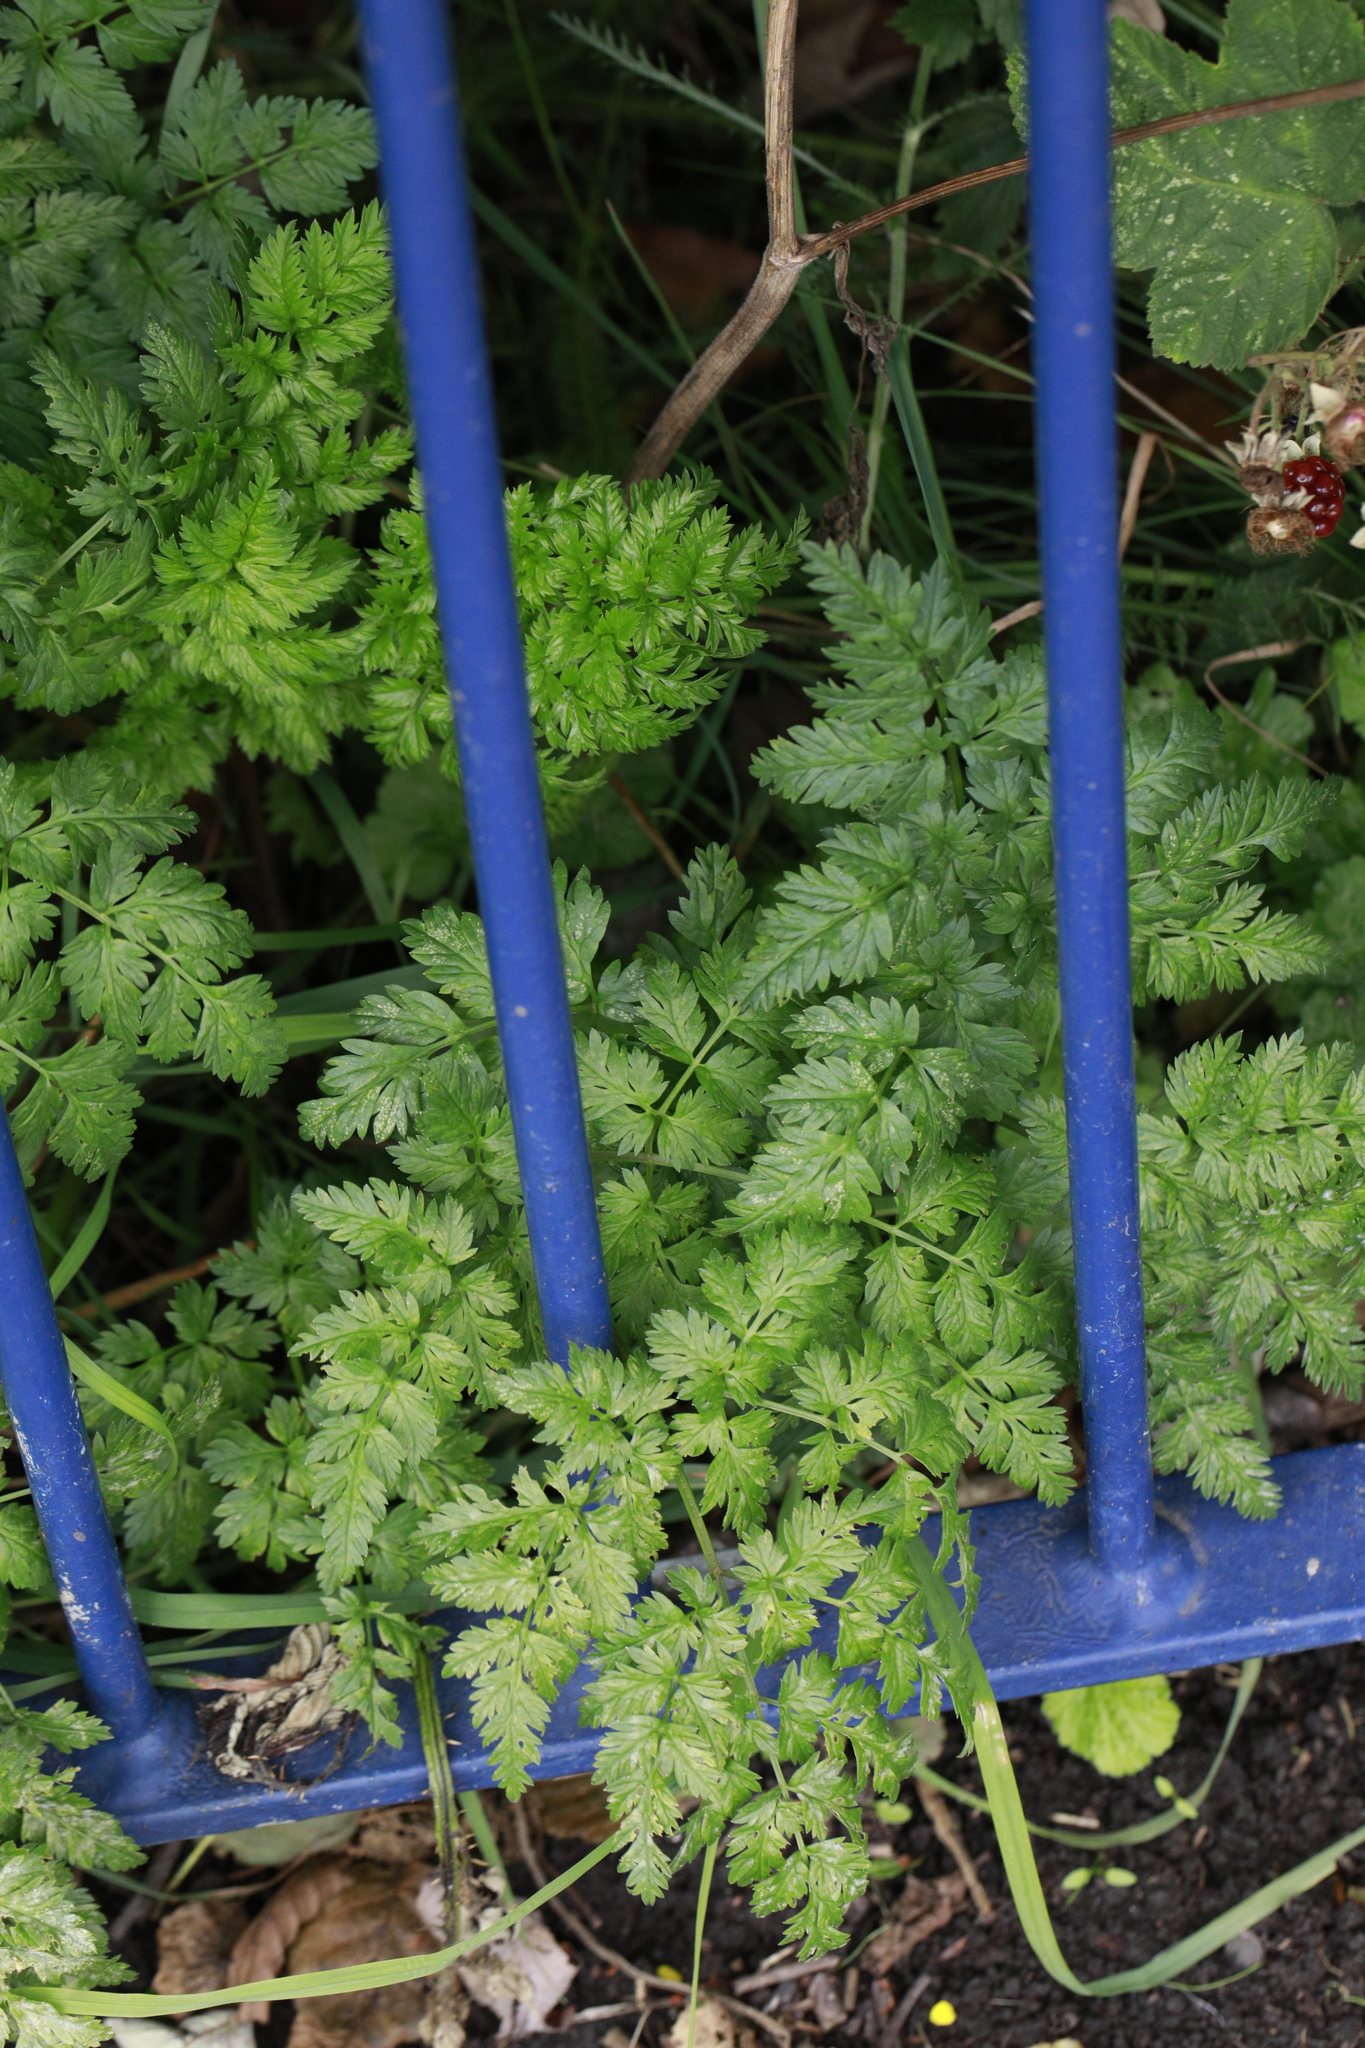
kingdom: Plantae
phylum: Tracheophyta
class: Magnoliopsida
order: Apiales
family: Apiaceae
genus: Anthriscus
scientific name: Anthriscus sylvestris
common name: Cow parsley
